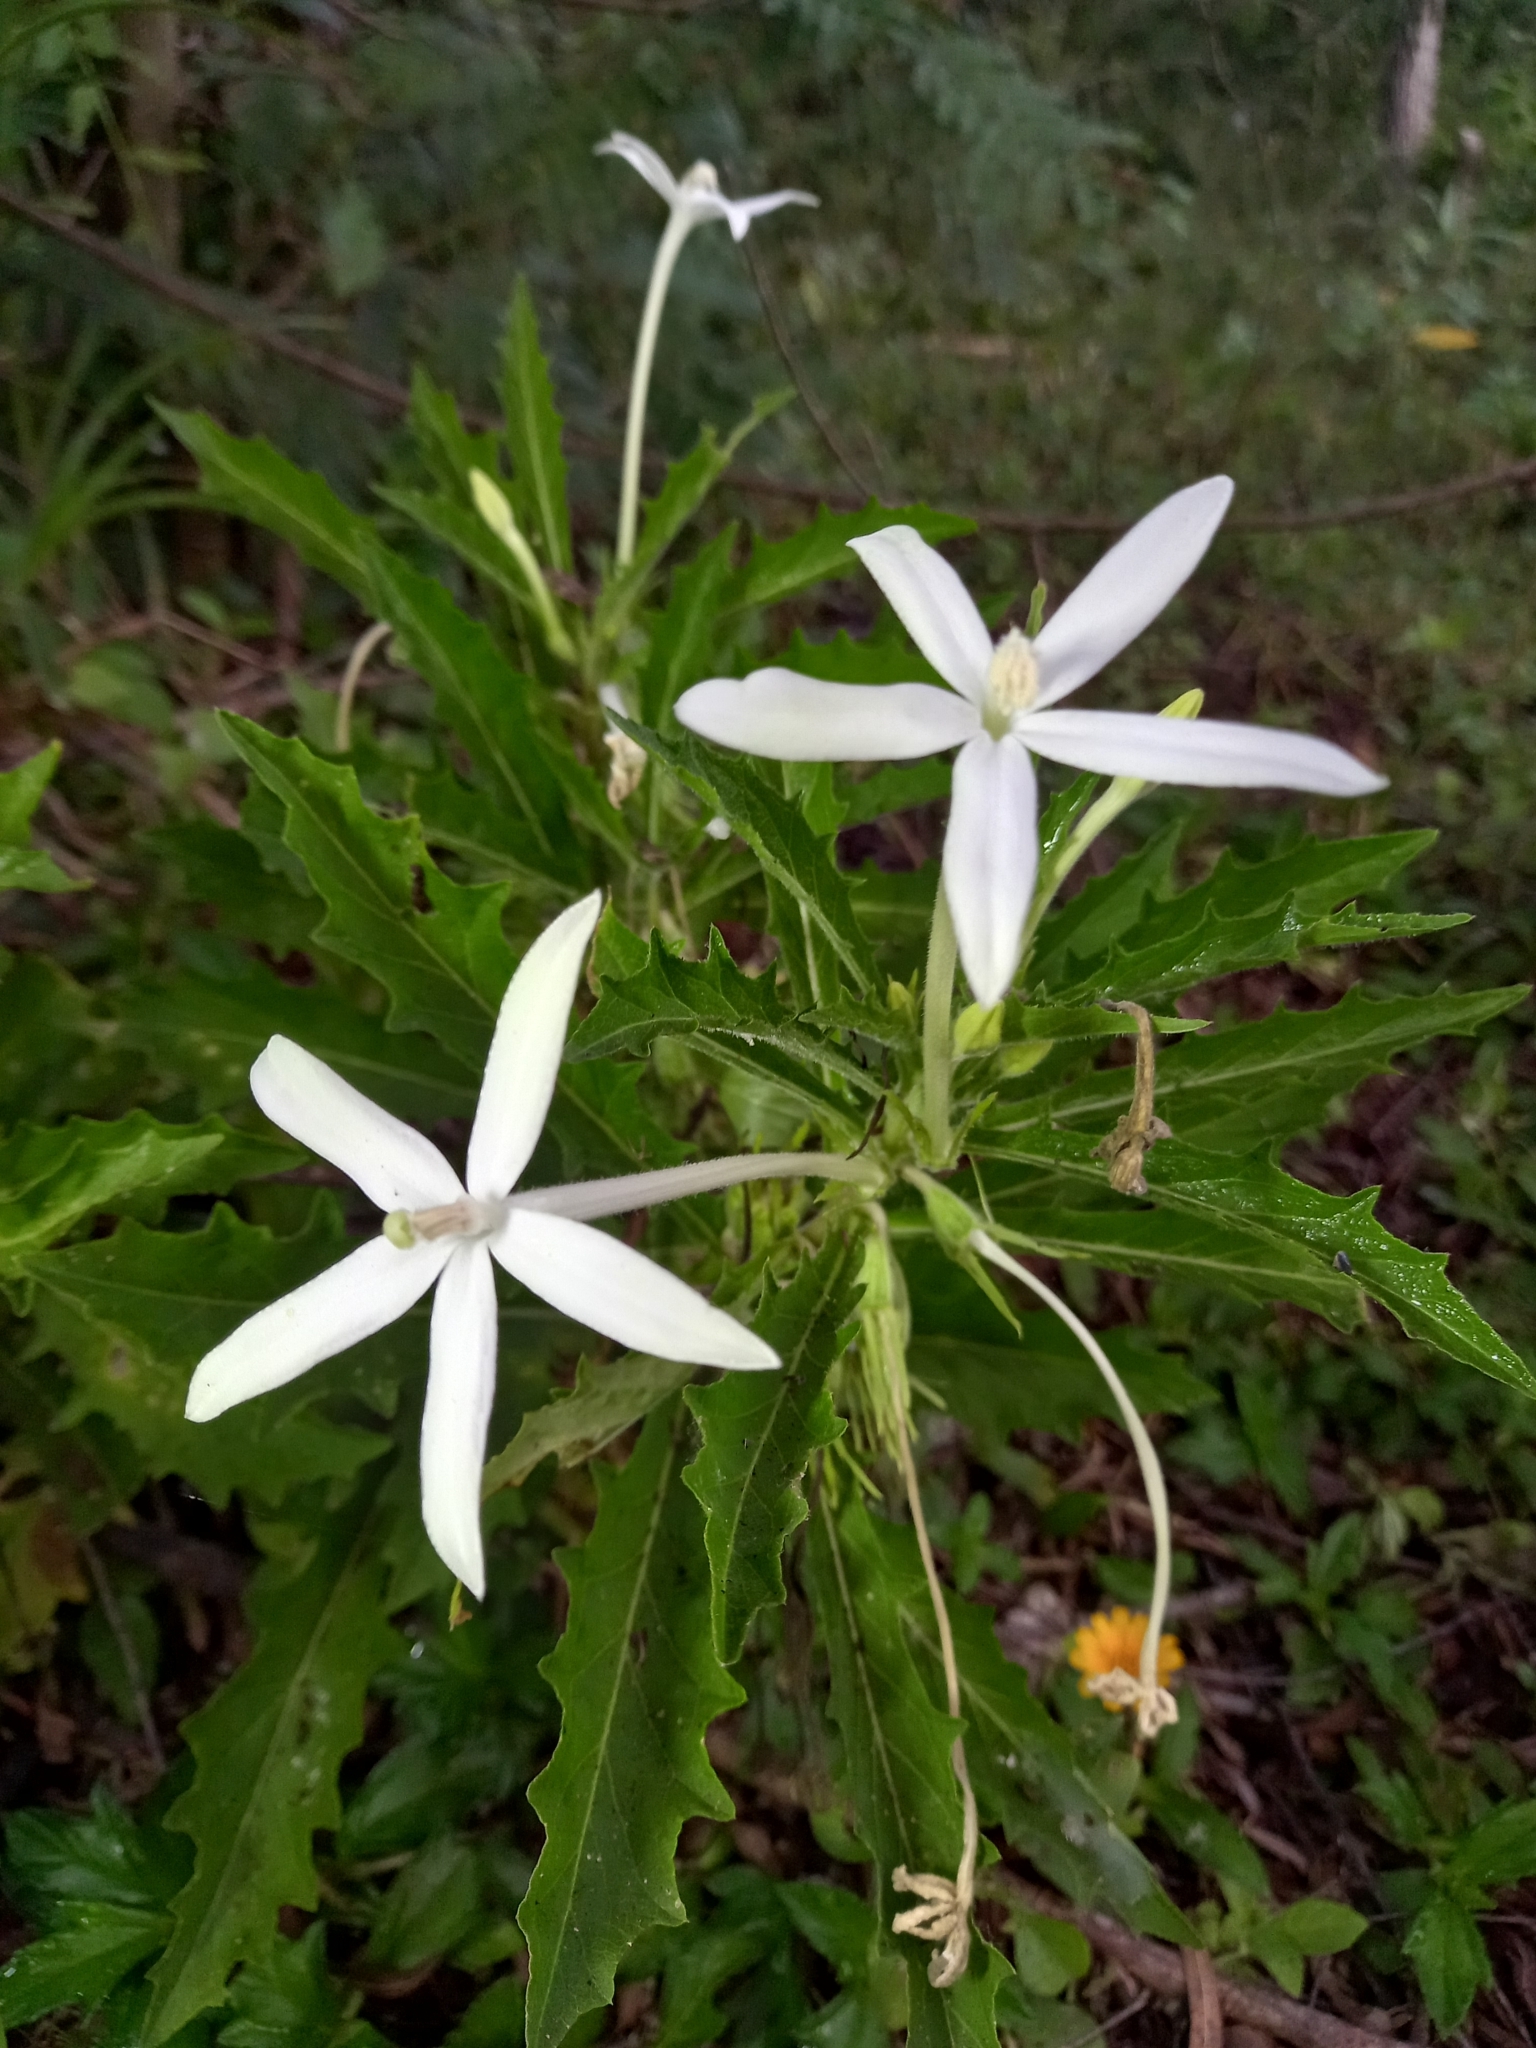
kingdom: Plantae
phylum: Tracheophyta
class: Magnoliopsida
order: Asterales
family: Campanulaceae
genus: Hippobroma
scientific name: Hippobroma longiflora
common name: Madamfate
